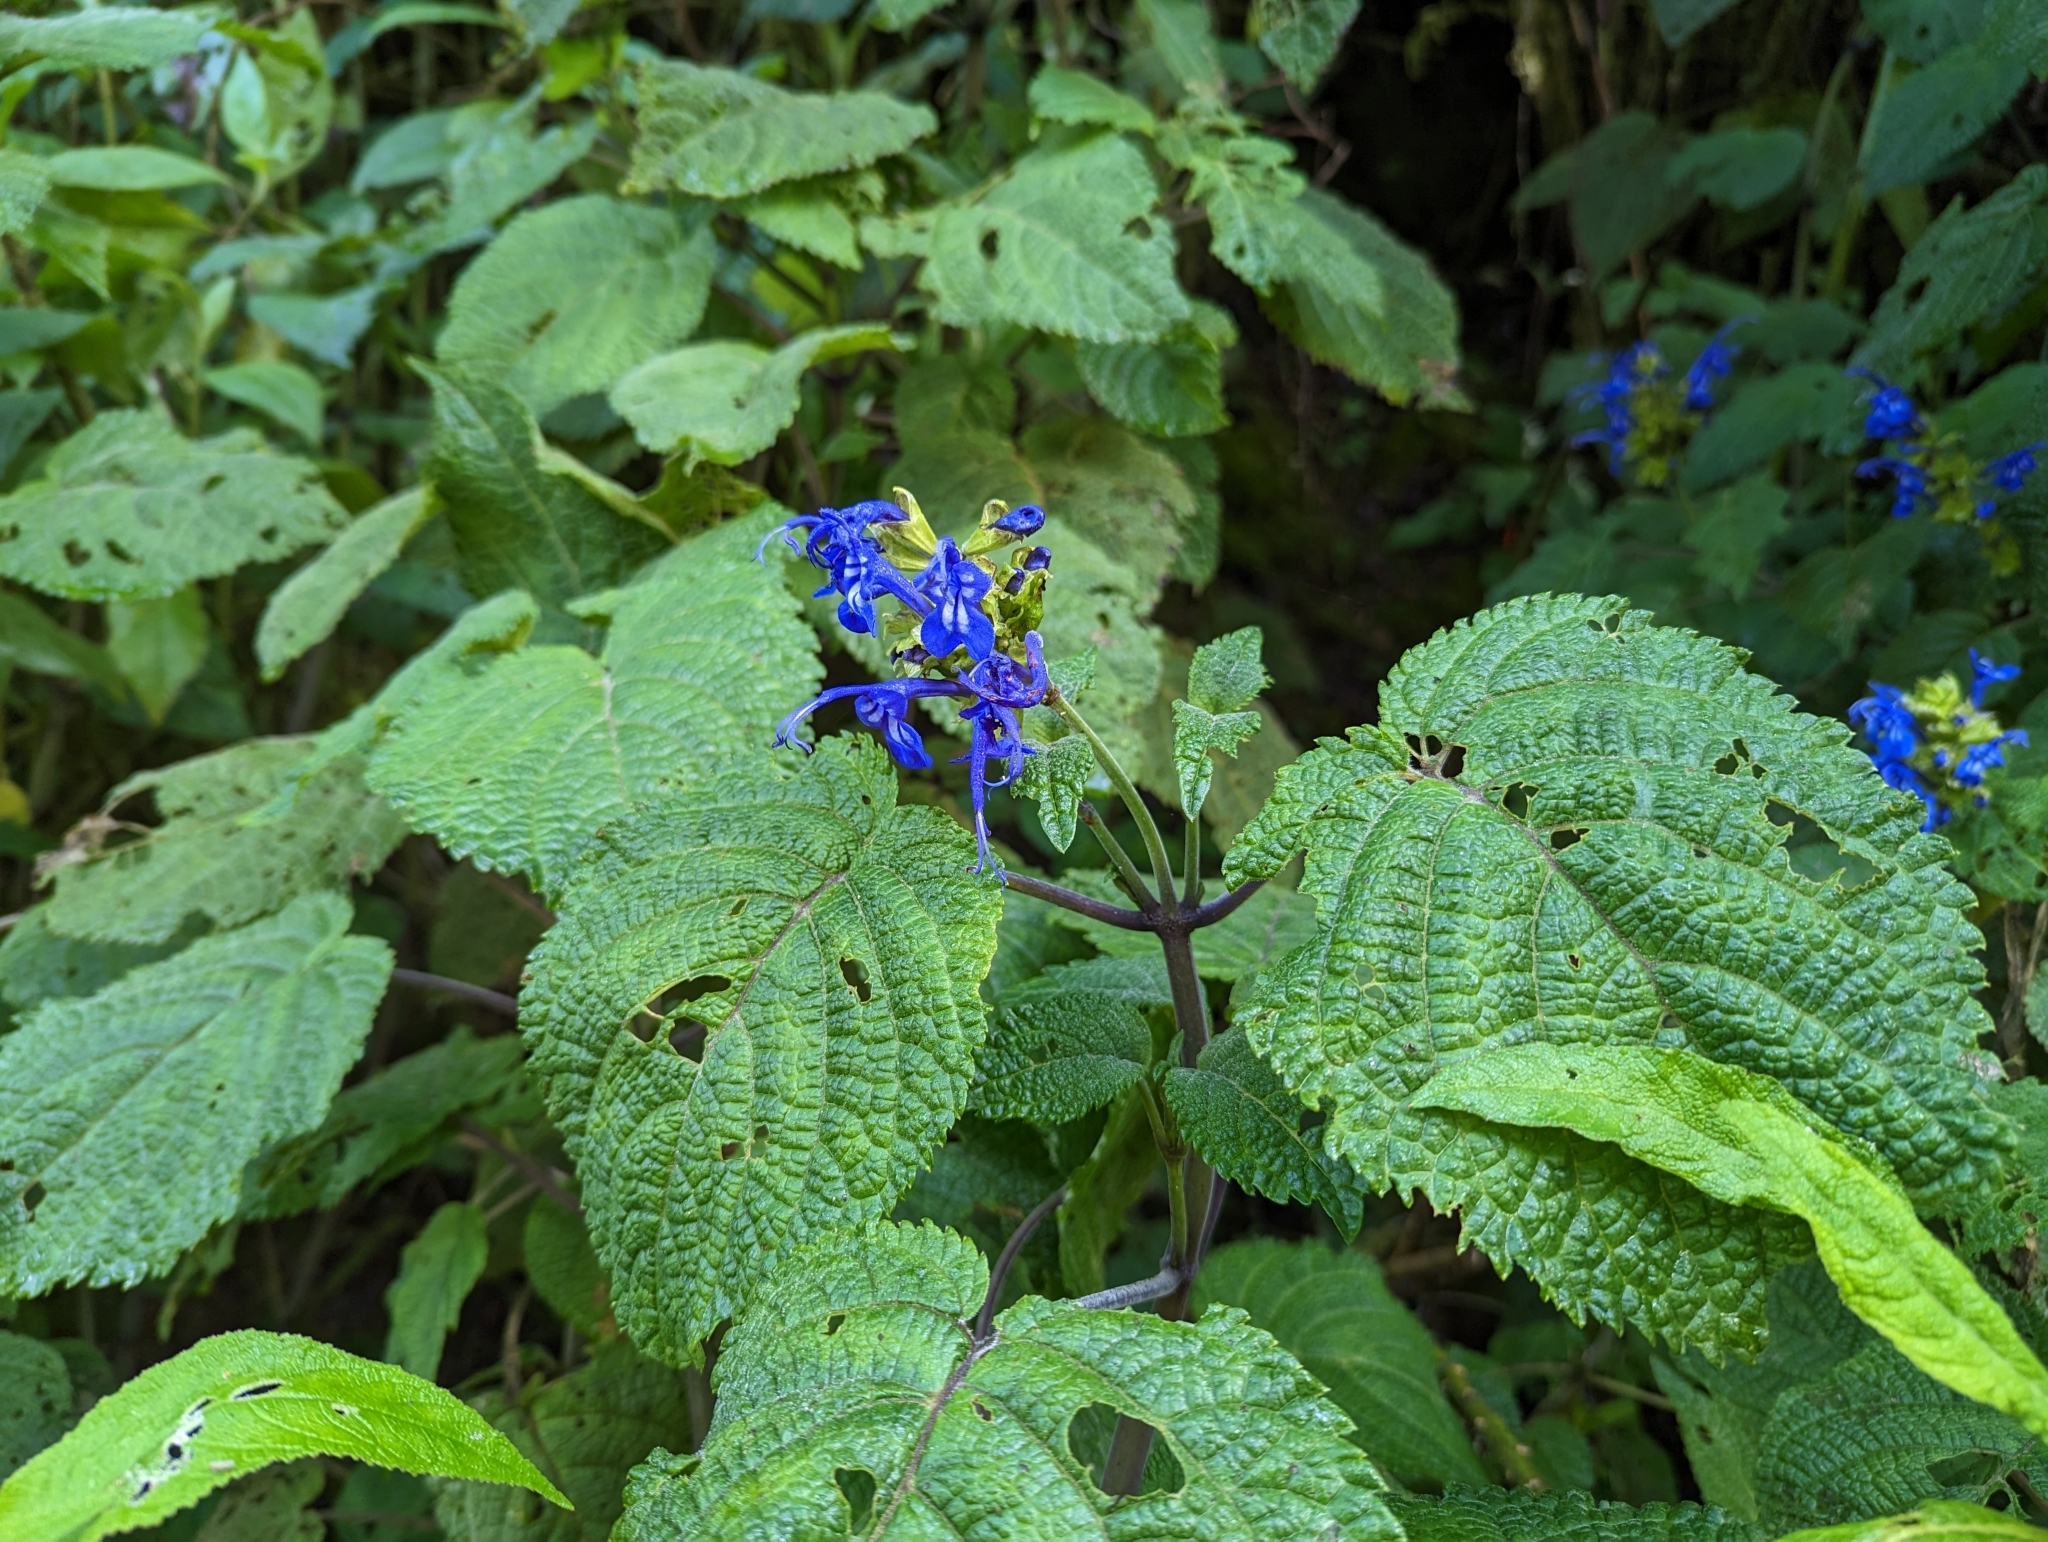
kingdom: Plantae
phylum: Tracheophyta
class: Magnoliopsida
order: Lamiales
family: Lamiaceae
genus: Salvia
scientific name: Salvia pichinchensis
